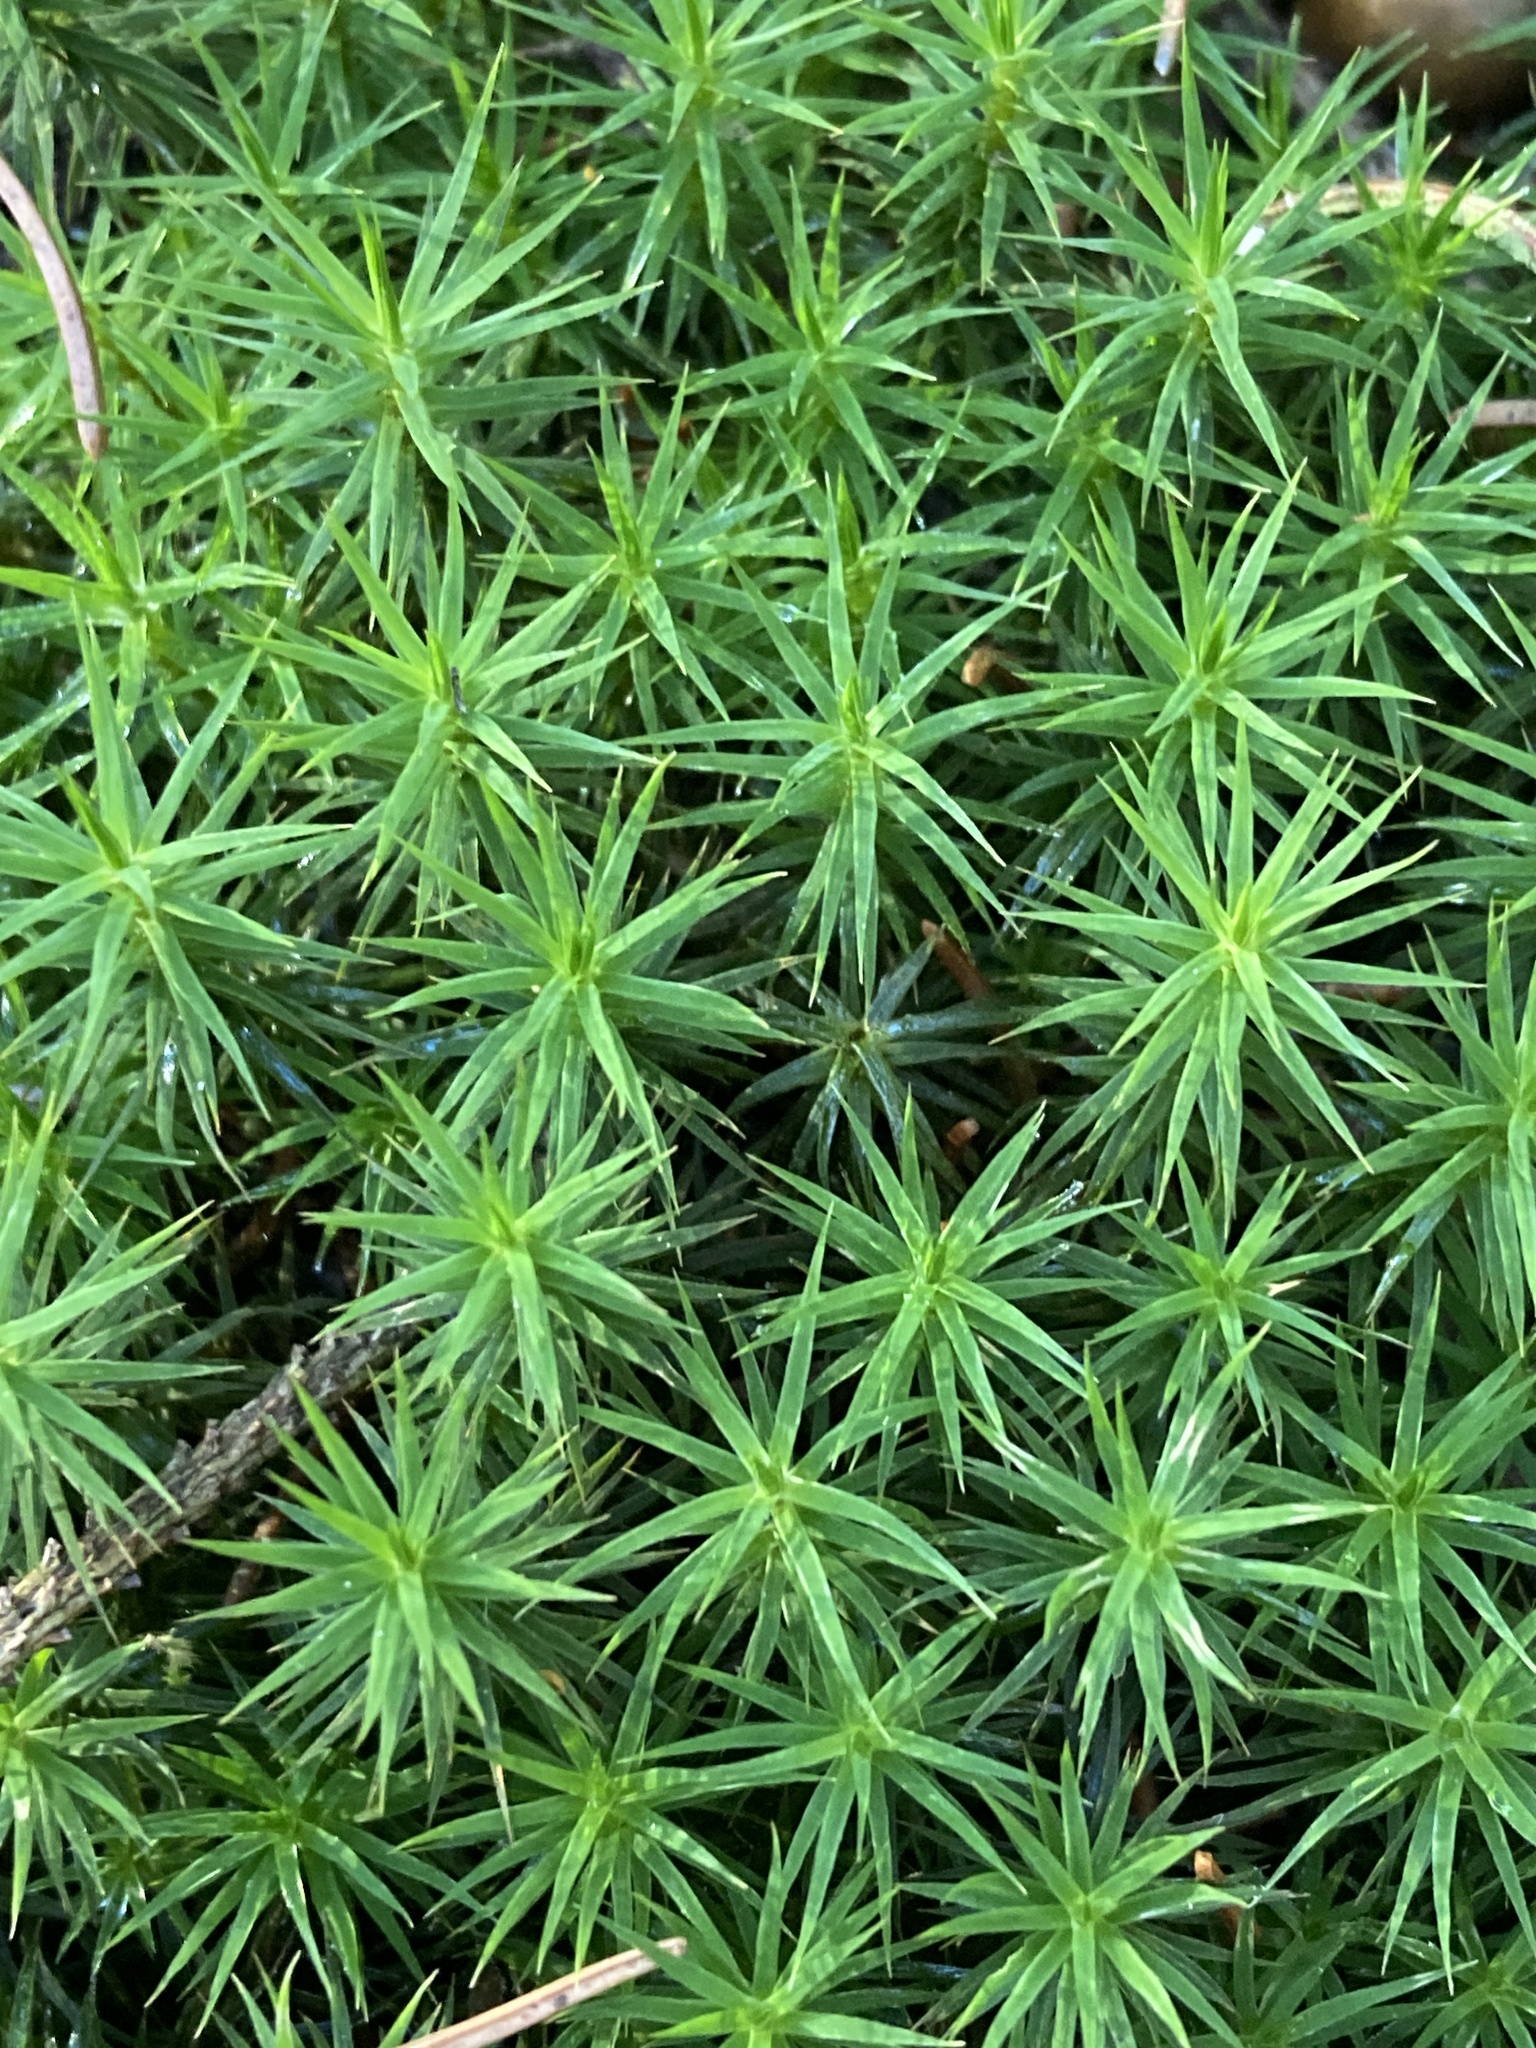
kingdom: Plantae
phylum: Bryophyta
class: Polytrichopsida
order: Polytrichales
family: Polytrichaceae
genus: Polytrichum
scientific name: Polytrichum formosum
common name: Bank haircap moss
